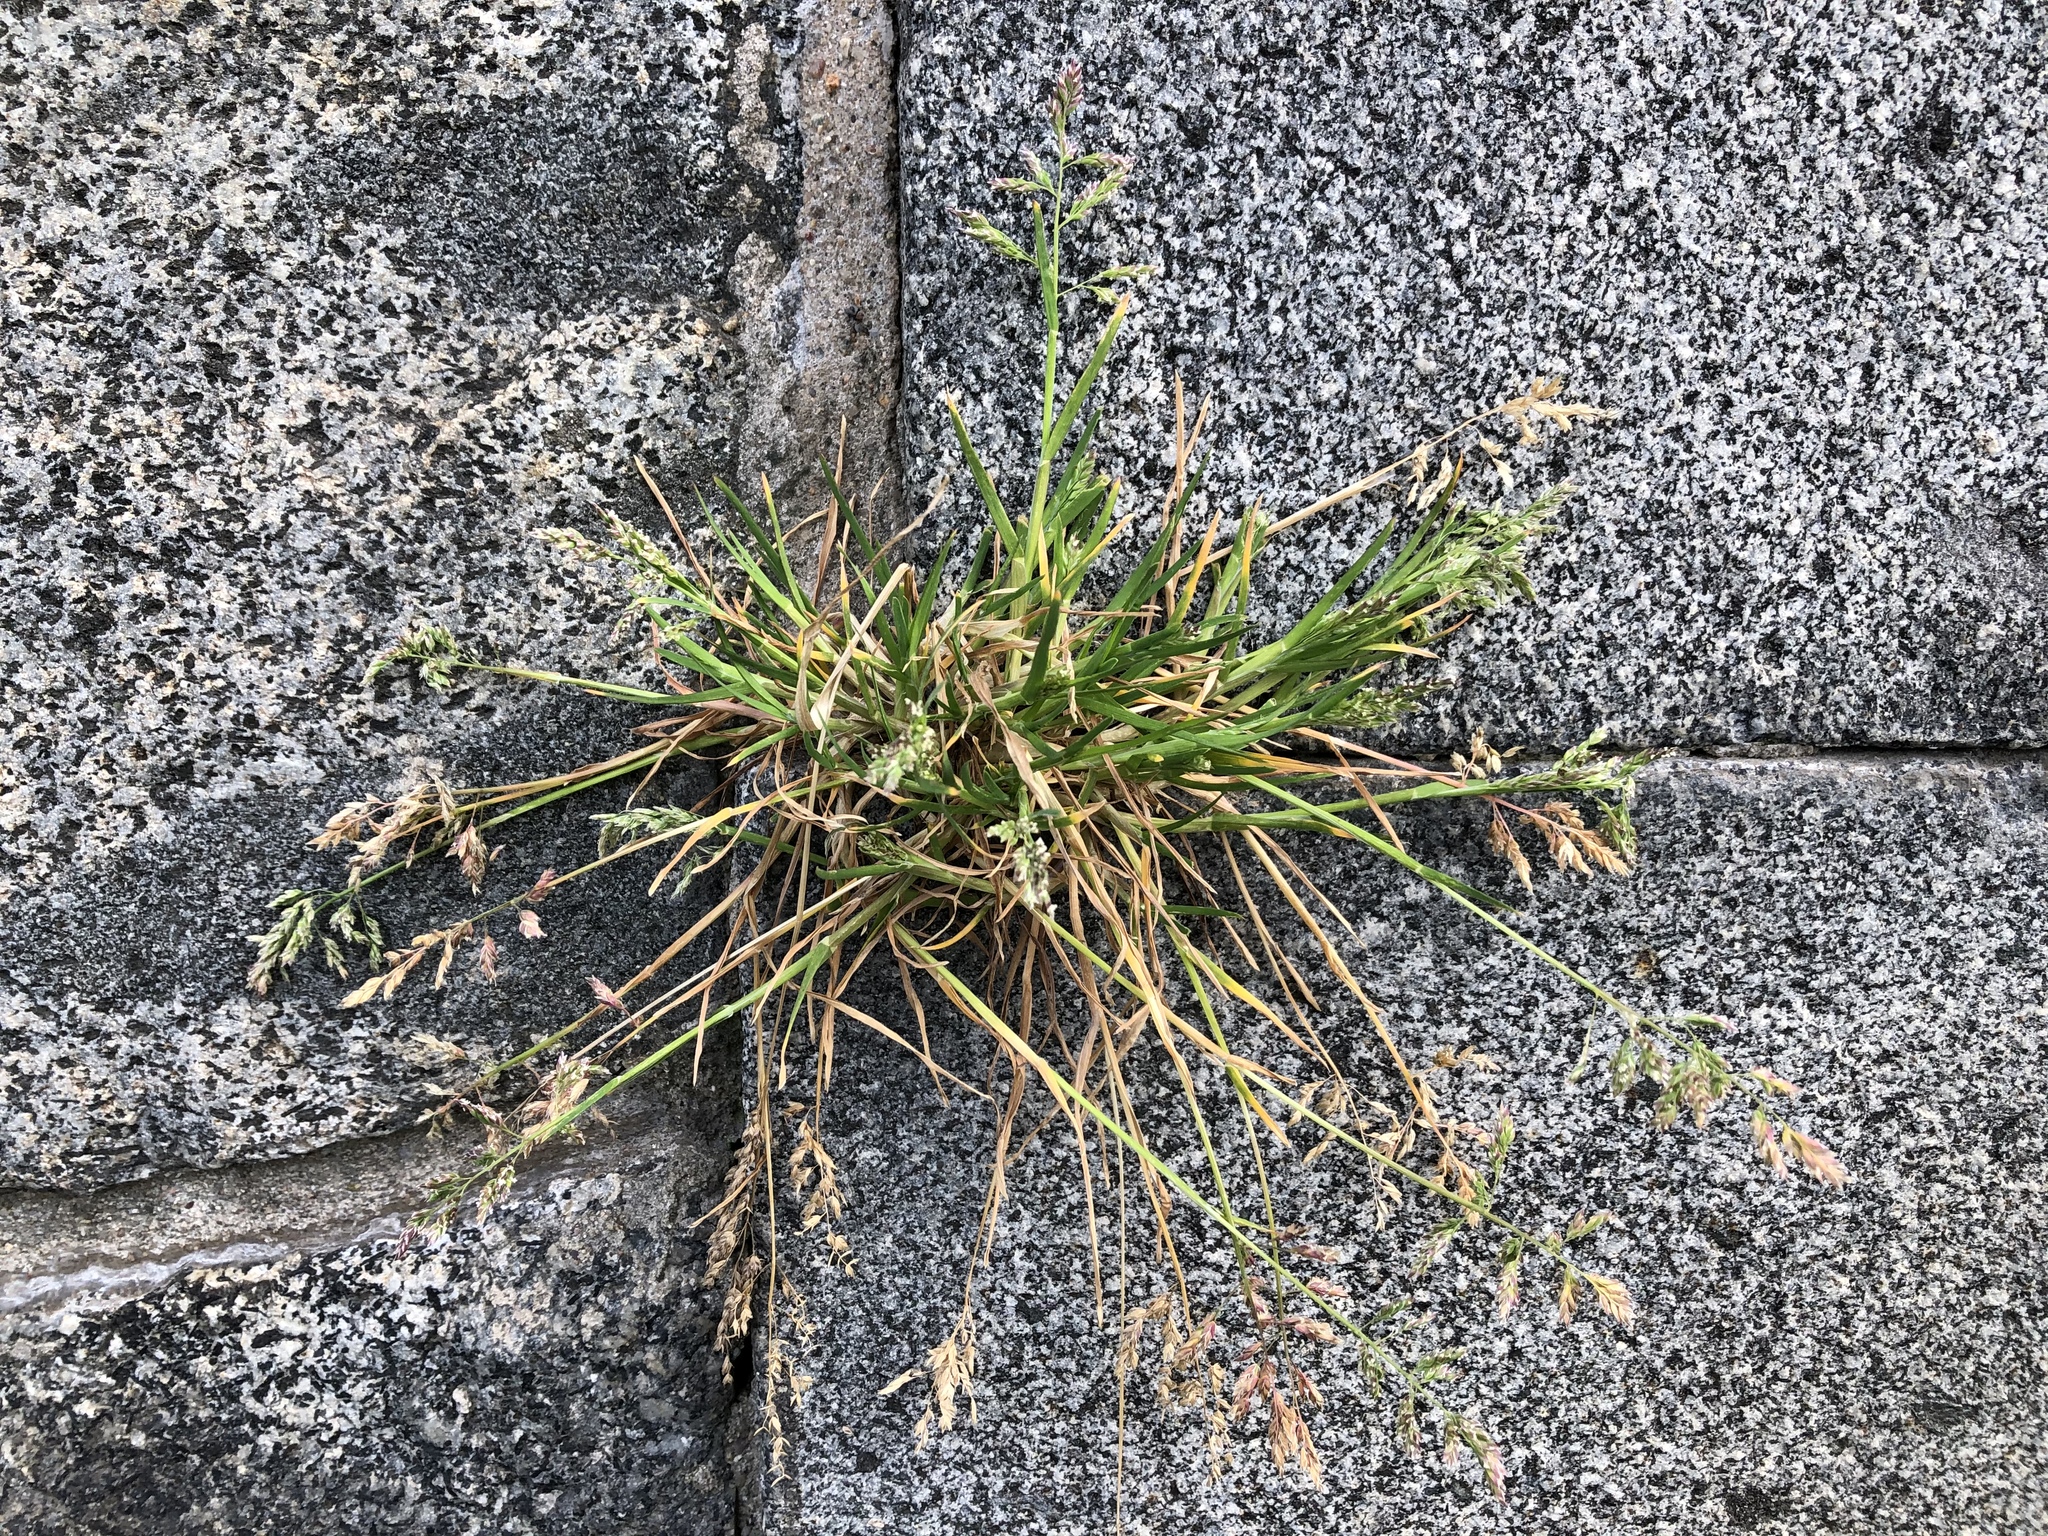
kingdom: Plantae
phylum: Tracheophyta
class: Liliopsida
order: Poales
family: Poaceae
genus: Poa
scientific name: Poa annua
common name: Annual bluegrass
